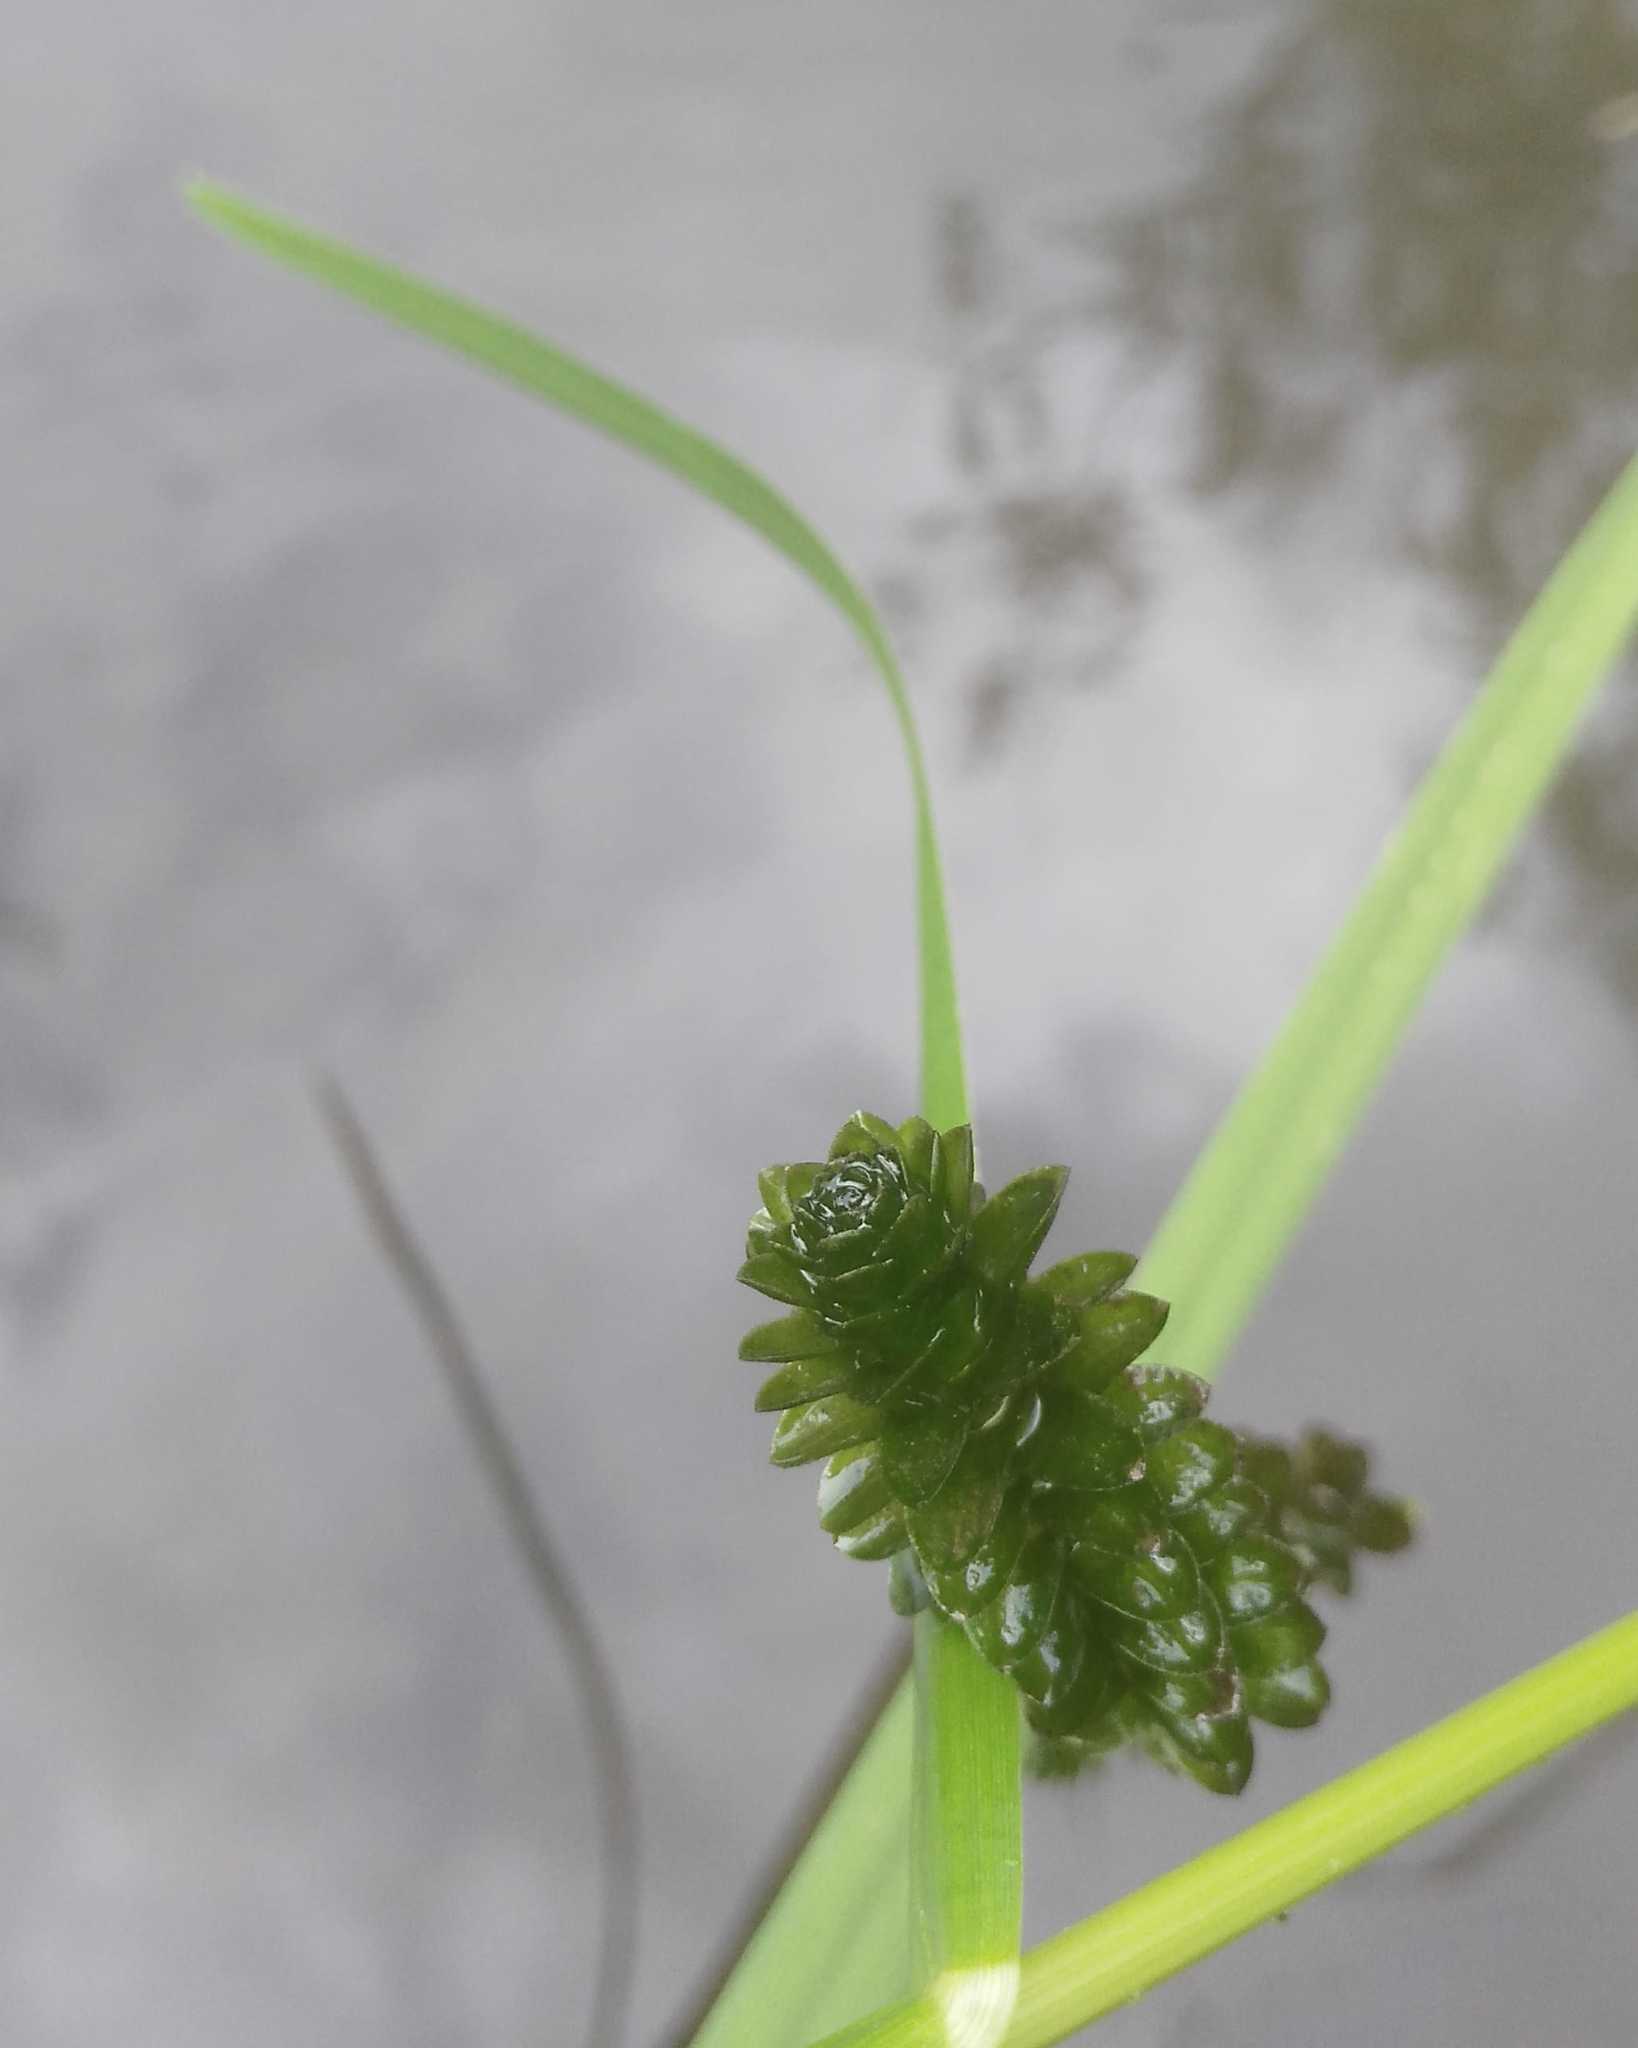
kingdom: Plantae
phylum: Tracheophyta
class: Liliopsida
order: Alismatales
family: Hydrocharitaceae
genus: Elodea
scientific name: Elodea canadensis
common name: Canadian waterweed
